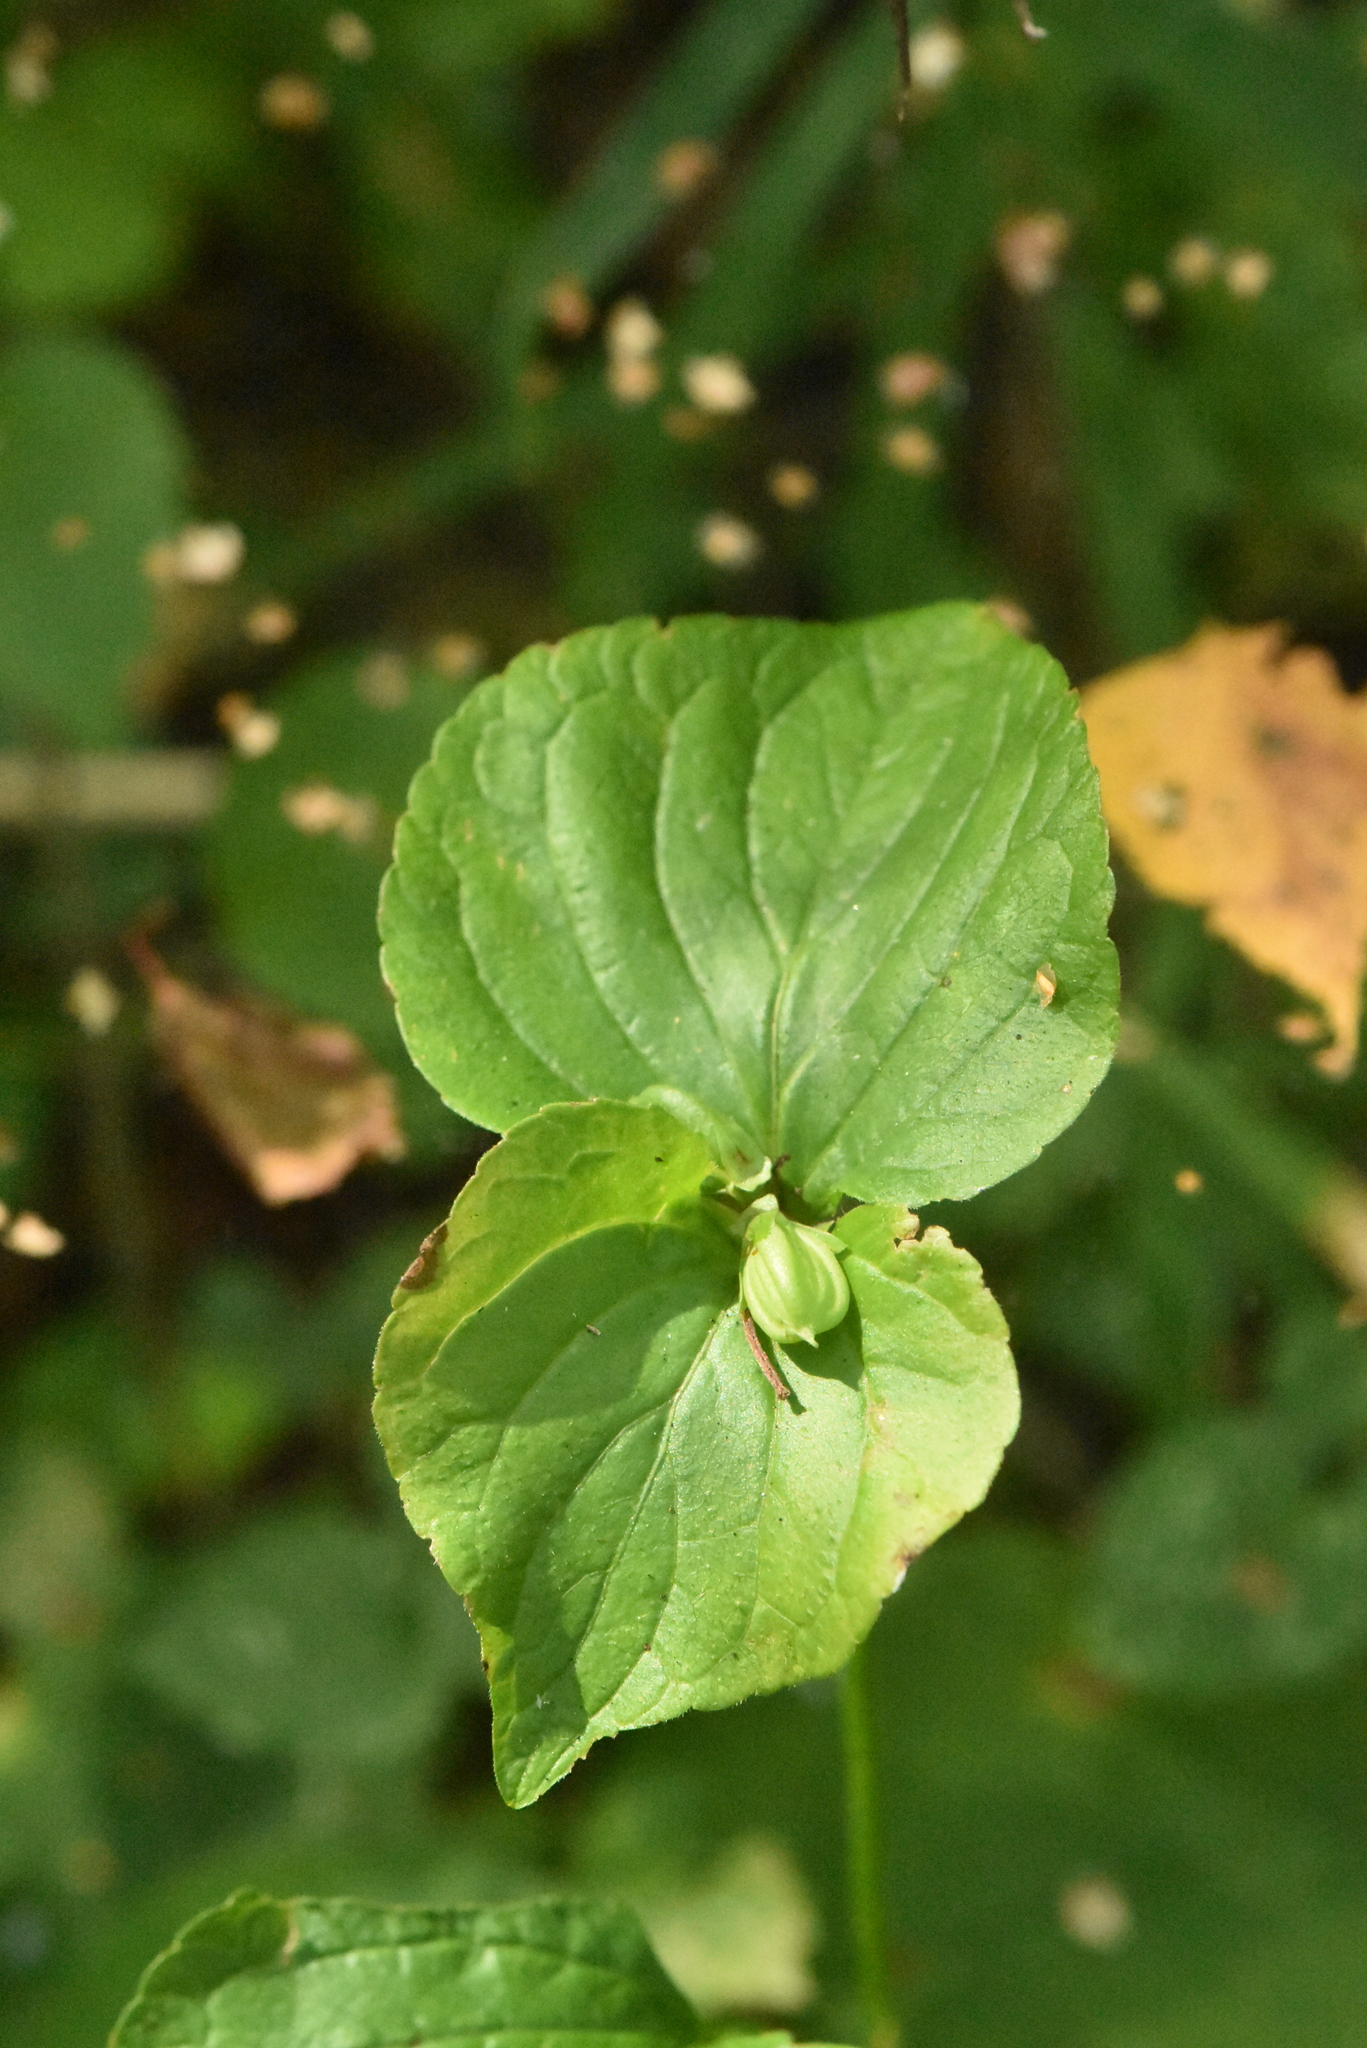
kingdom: Plantae
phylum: Tracheophyta
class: Magnoliopsida
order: Malpighiales
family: Violaceae
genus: Viola
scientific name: Viola mirabilis
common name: Wonder violet
